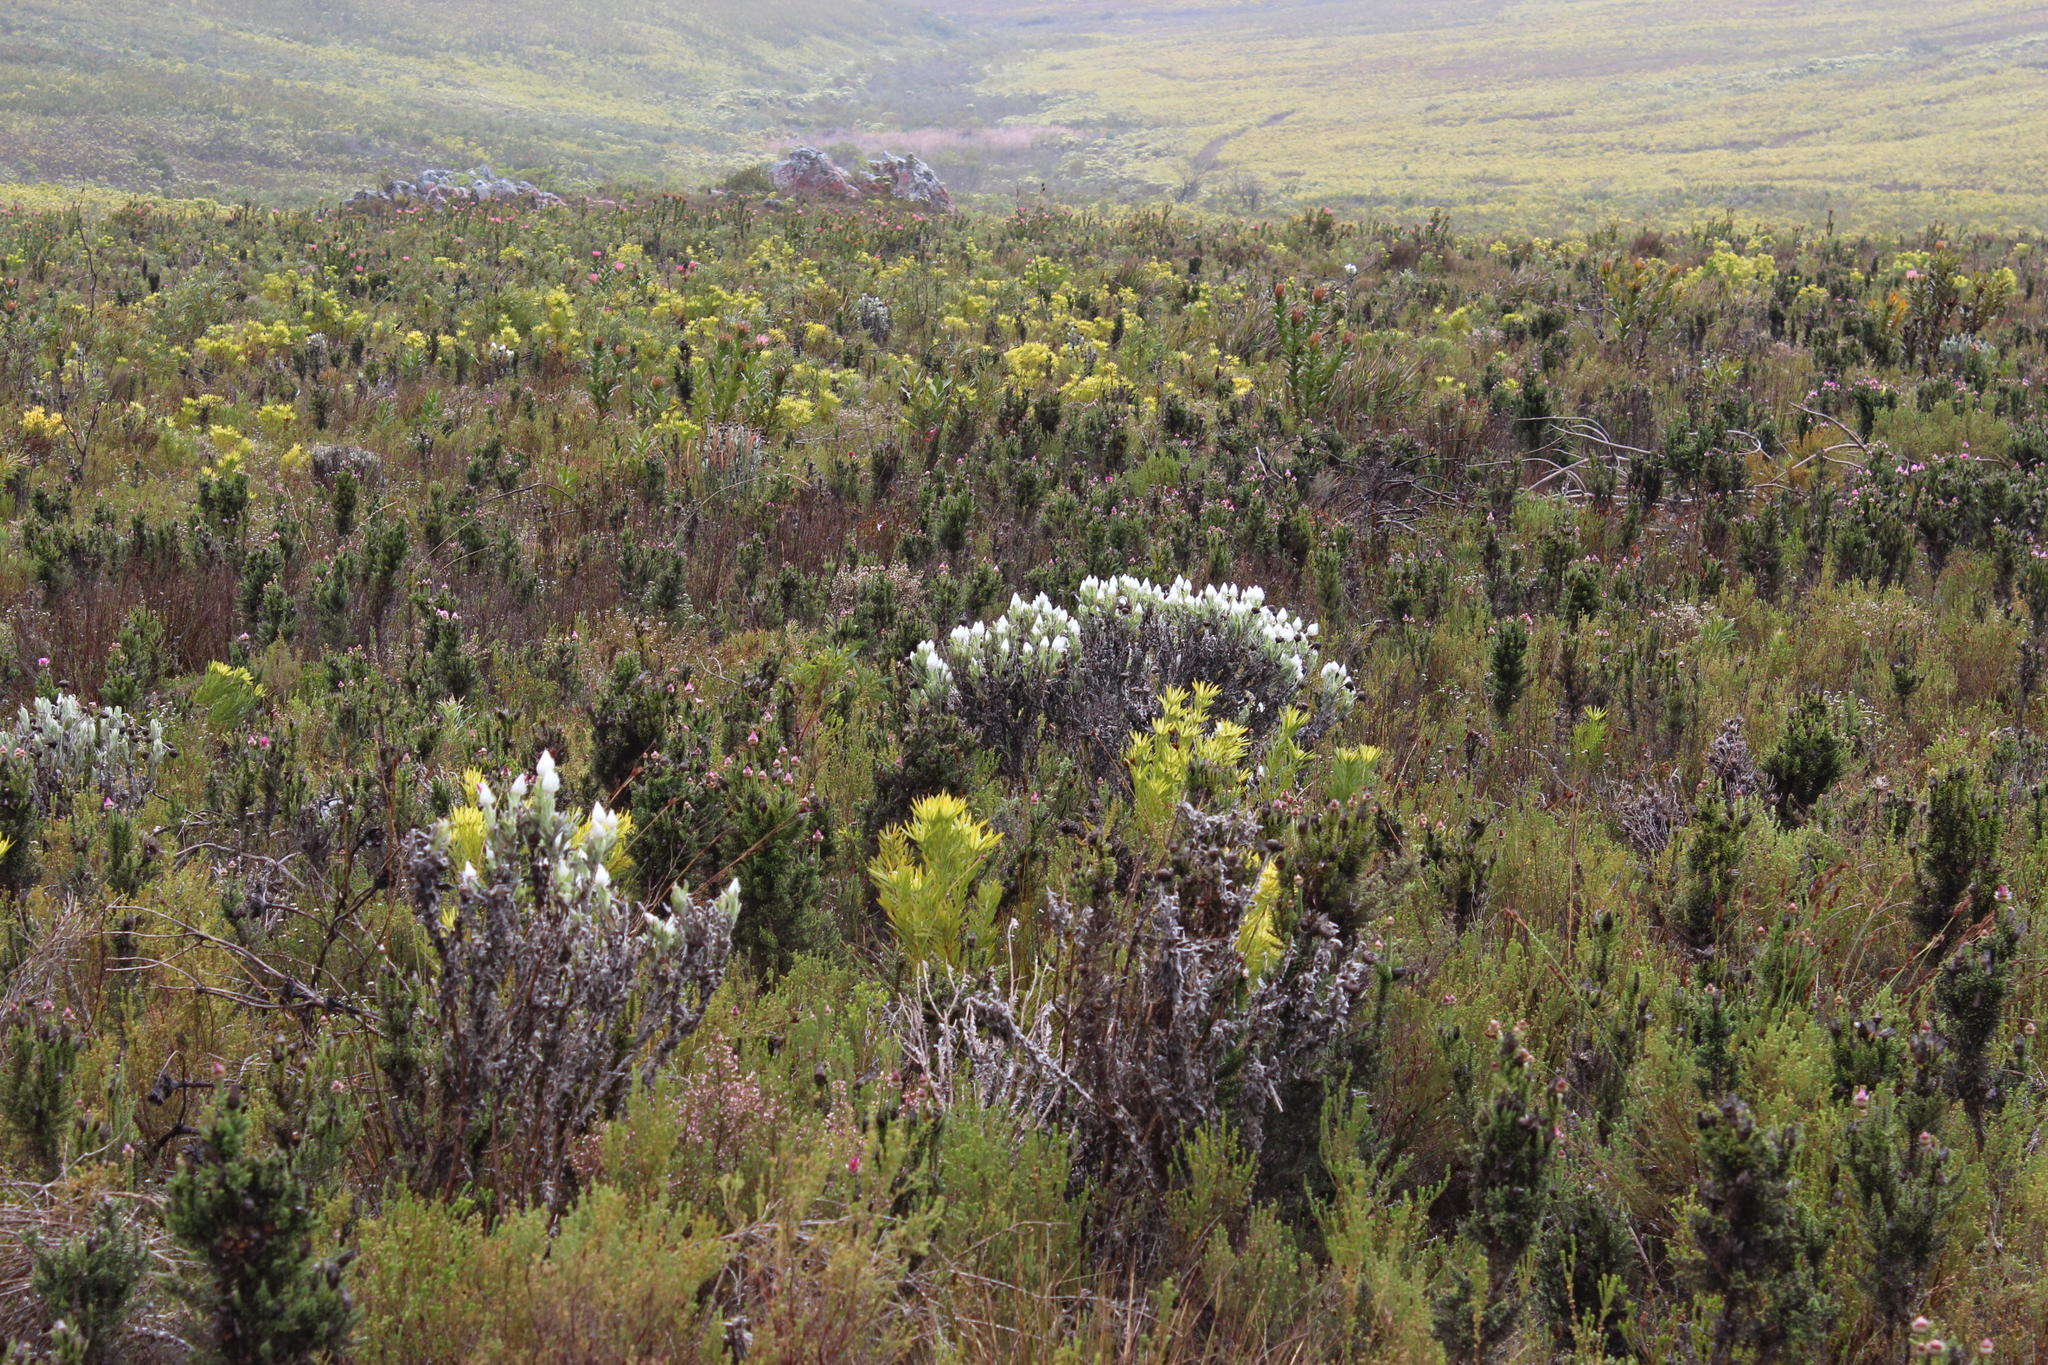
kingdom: Plantae
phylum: Tracheophyta
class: Magnoliopsida
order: Asterales
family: Asteraceae
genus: Syncarpha
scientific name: Syncarpha vestita
